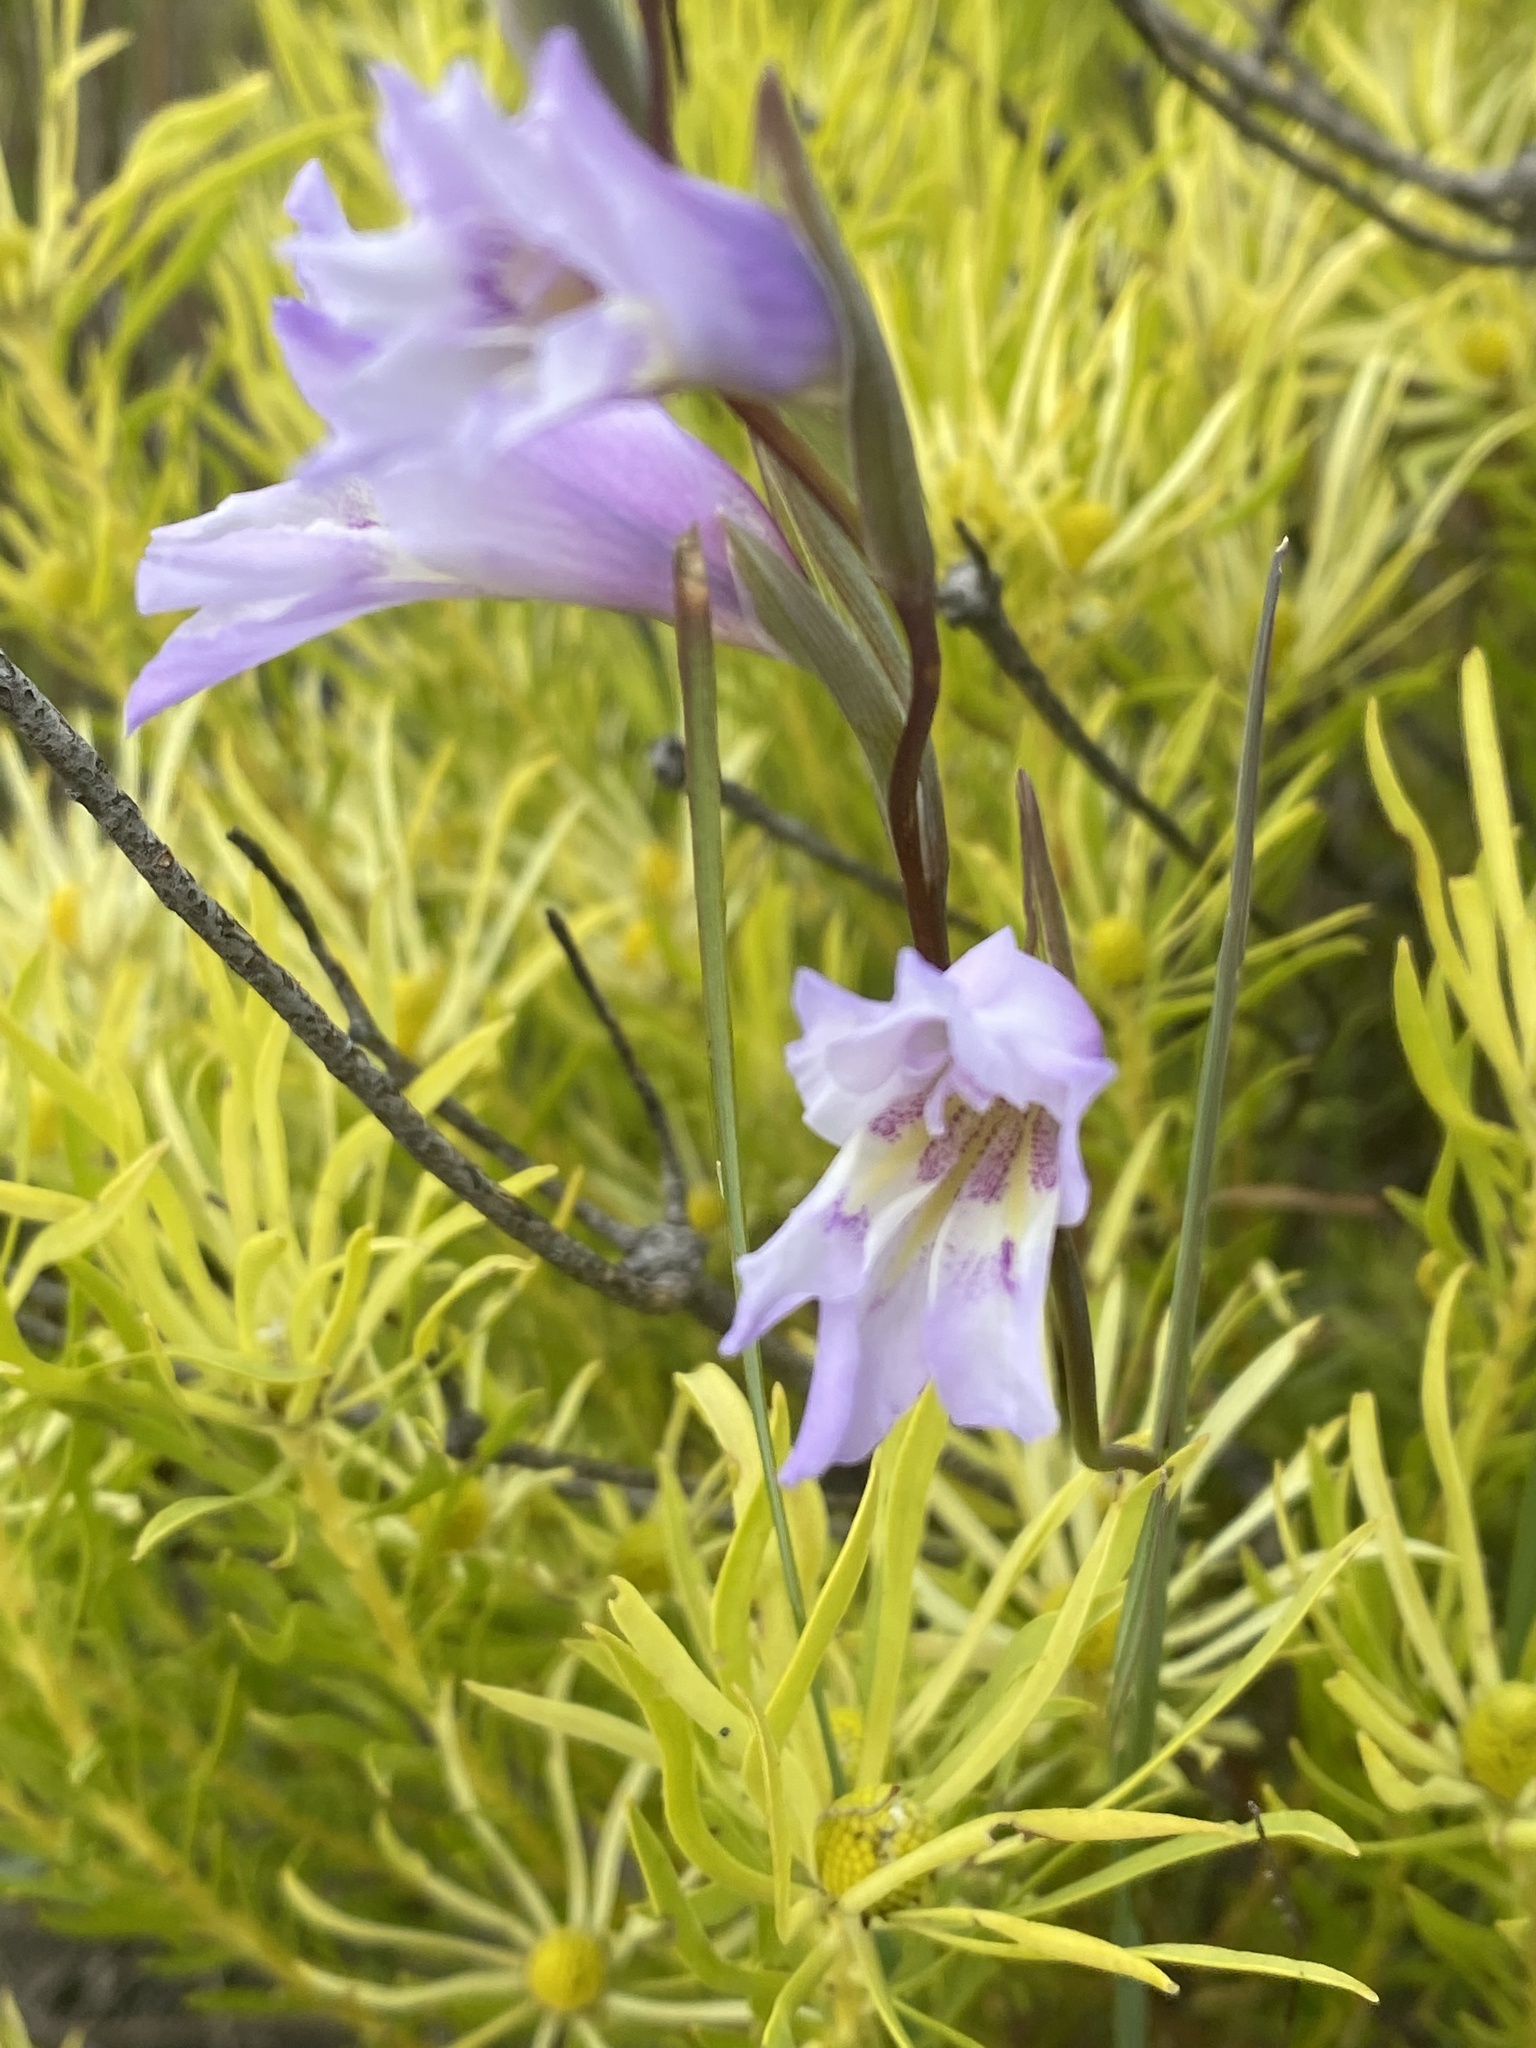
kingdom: Plantae
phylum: Tracheophyta
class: Liliopsida
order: Asparagales
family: Iridaceae
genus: Gladiolus
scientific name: Gladiolus gracilis
